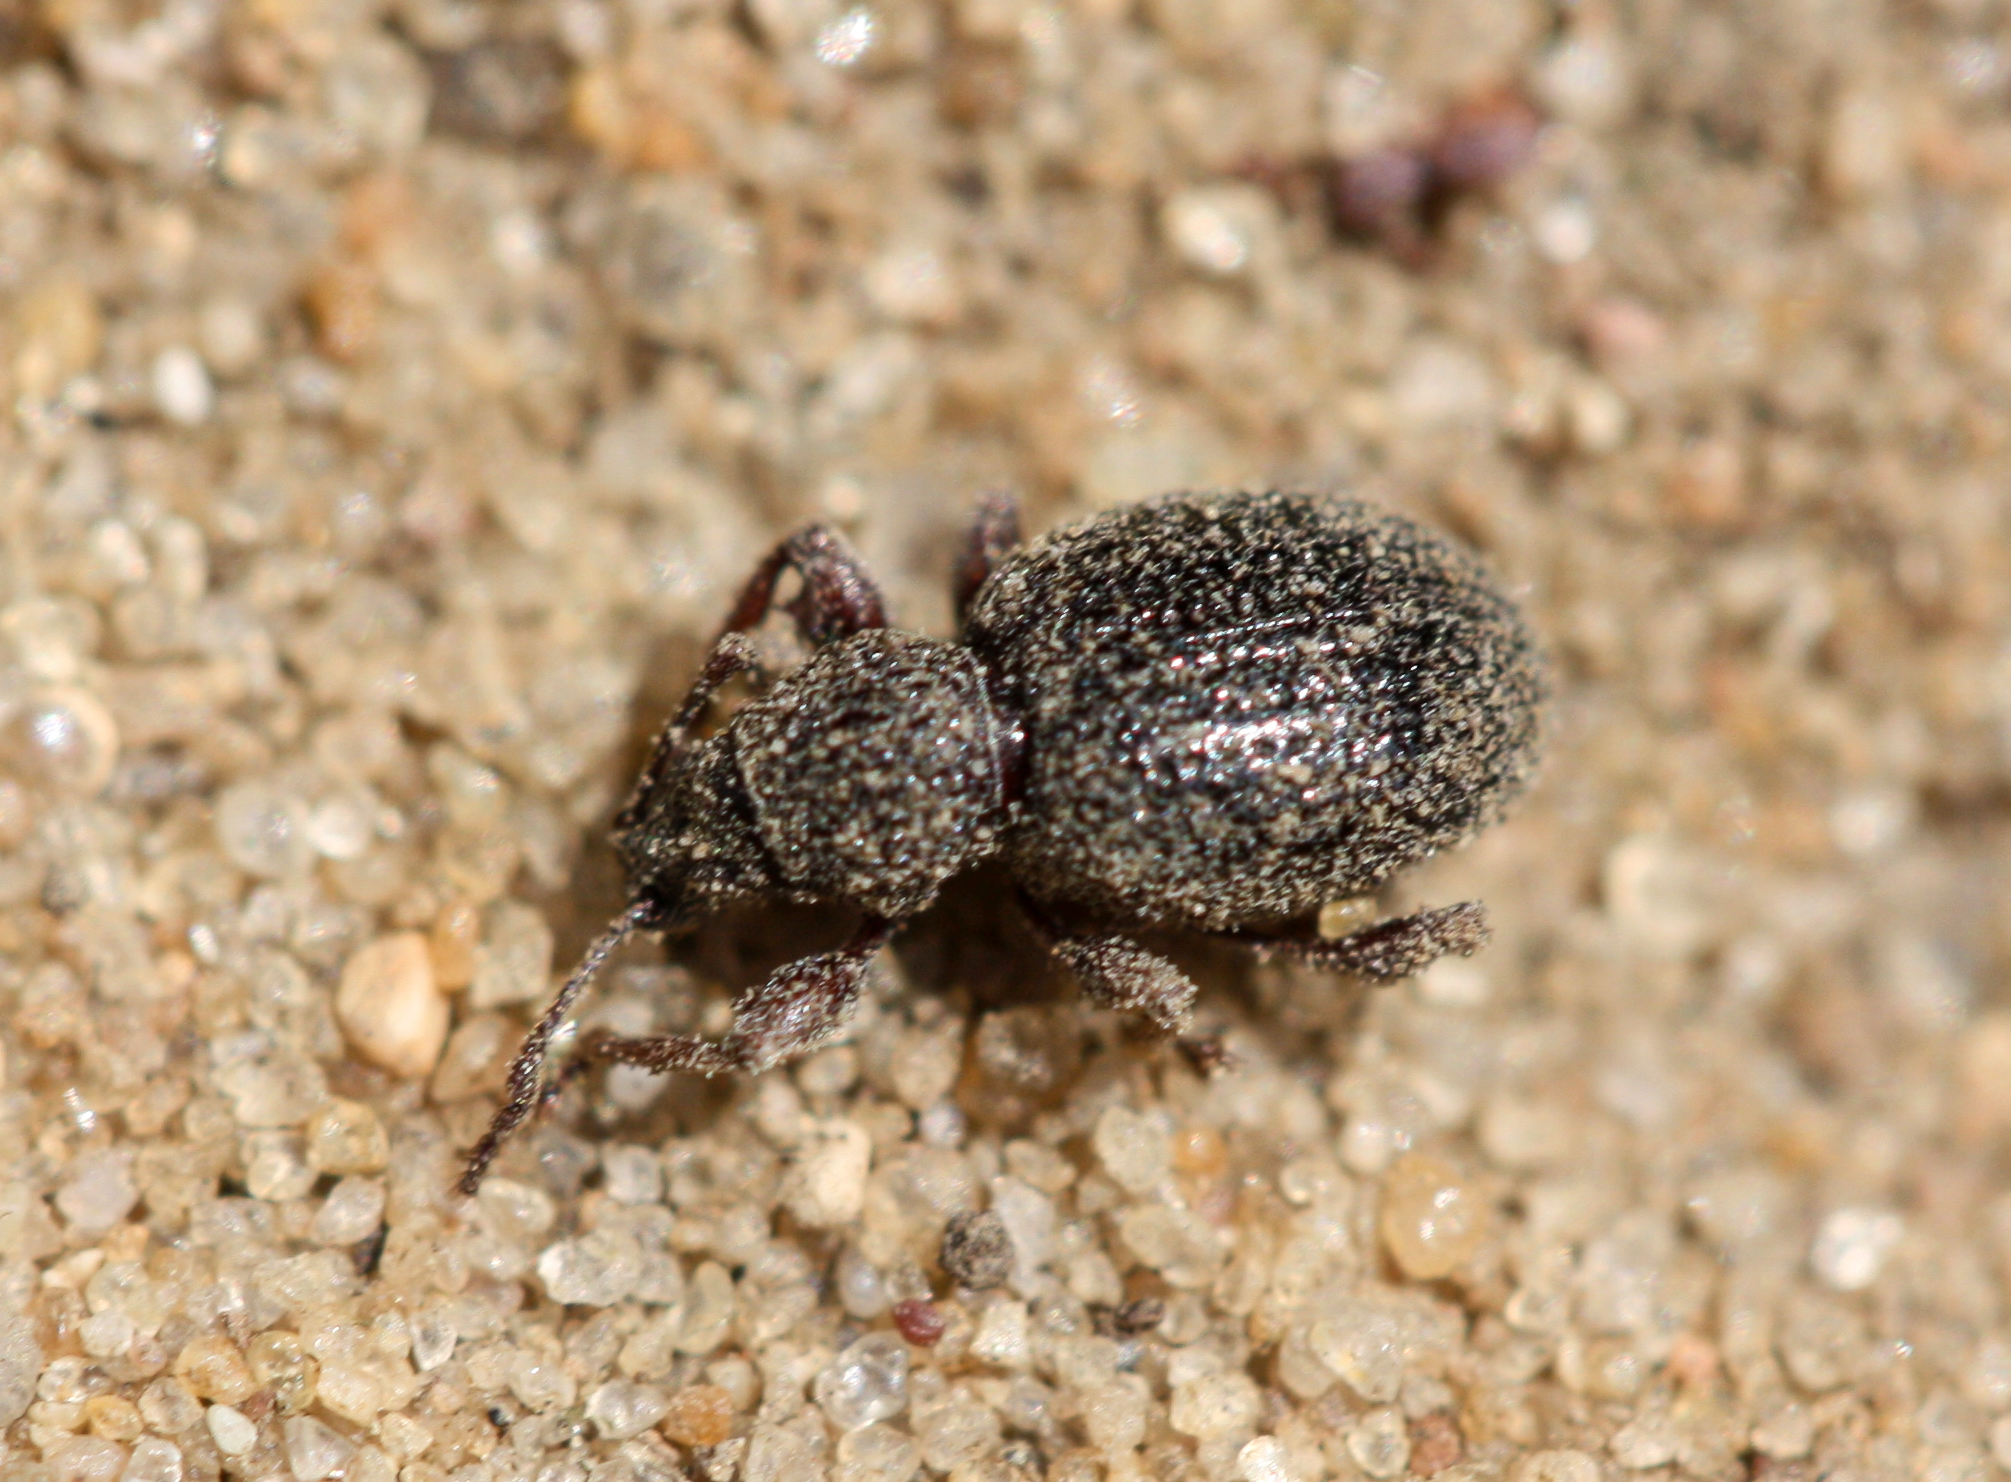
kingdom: Animalia
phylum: Arthropoda
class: Insecta
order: Coleoptera
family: Curculionidae
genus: Otiorhynchus
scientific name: Otiorhynchus ovatus
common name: Strawberry root weevil
